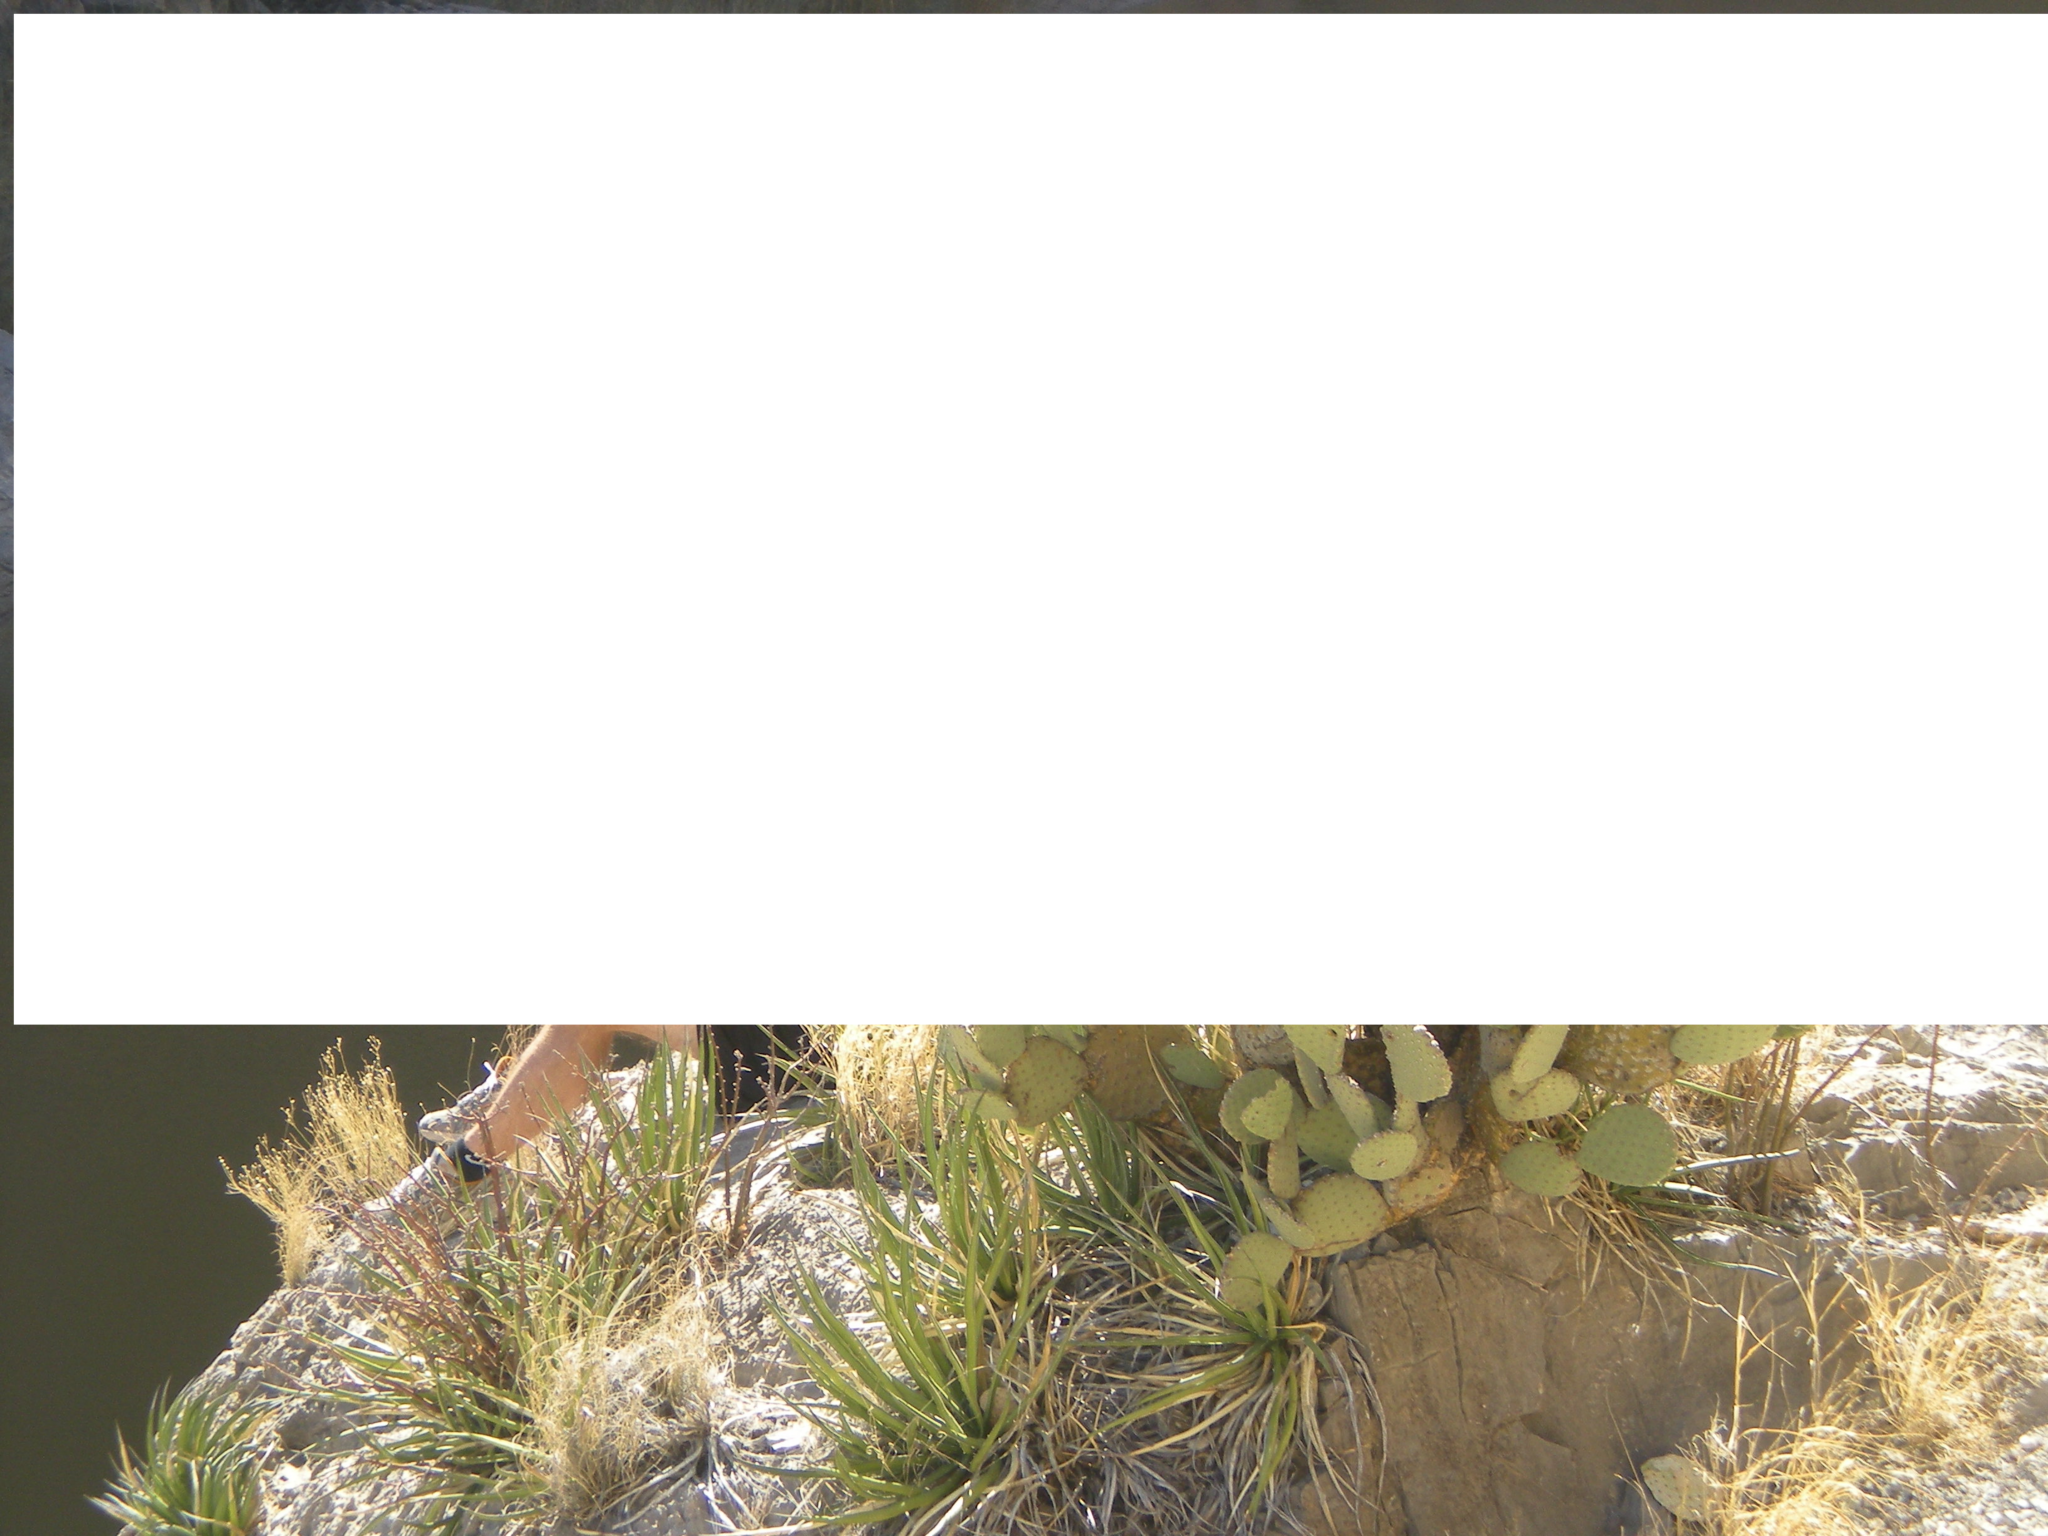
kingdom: Plantae
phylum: Tracheophyta
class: Liliopsida
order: Asparagales
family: Asparagaceae
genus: Agave
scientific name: Agave lechuguilla
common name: Lecheguilla agave
